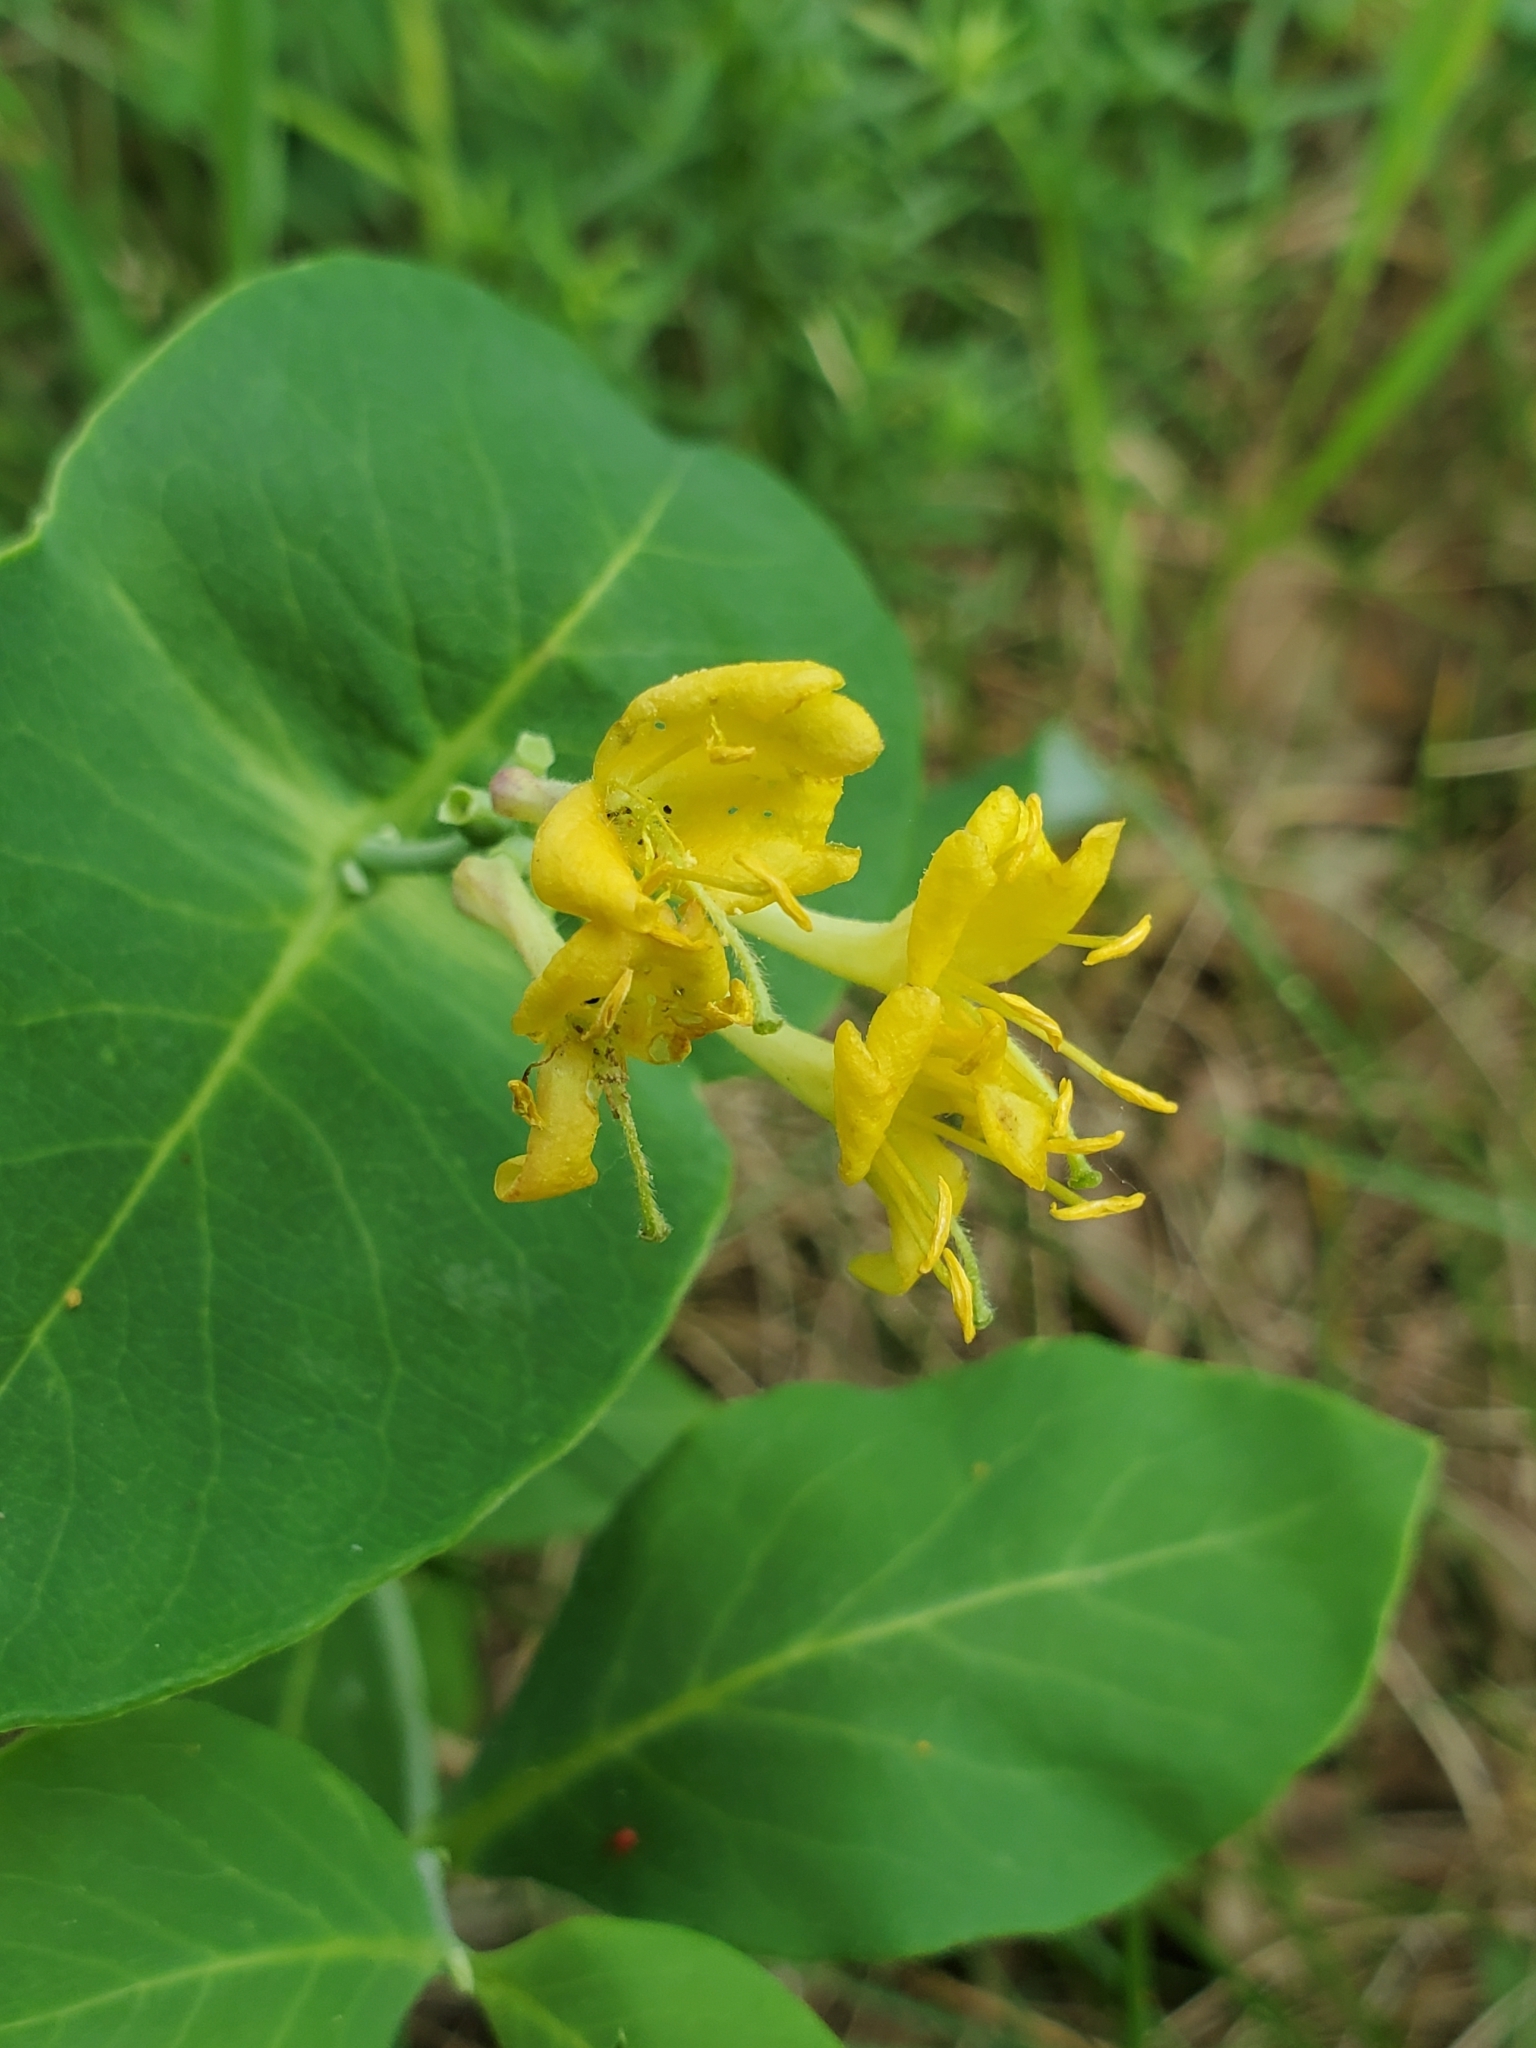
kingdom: Plantae
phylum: Tracheophyta
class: Magnoliopsida
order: Dipsacales
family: Caprifoliaceae
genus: Lonicera
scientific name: Lonicera dioica
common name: Limber honeysuckle
